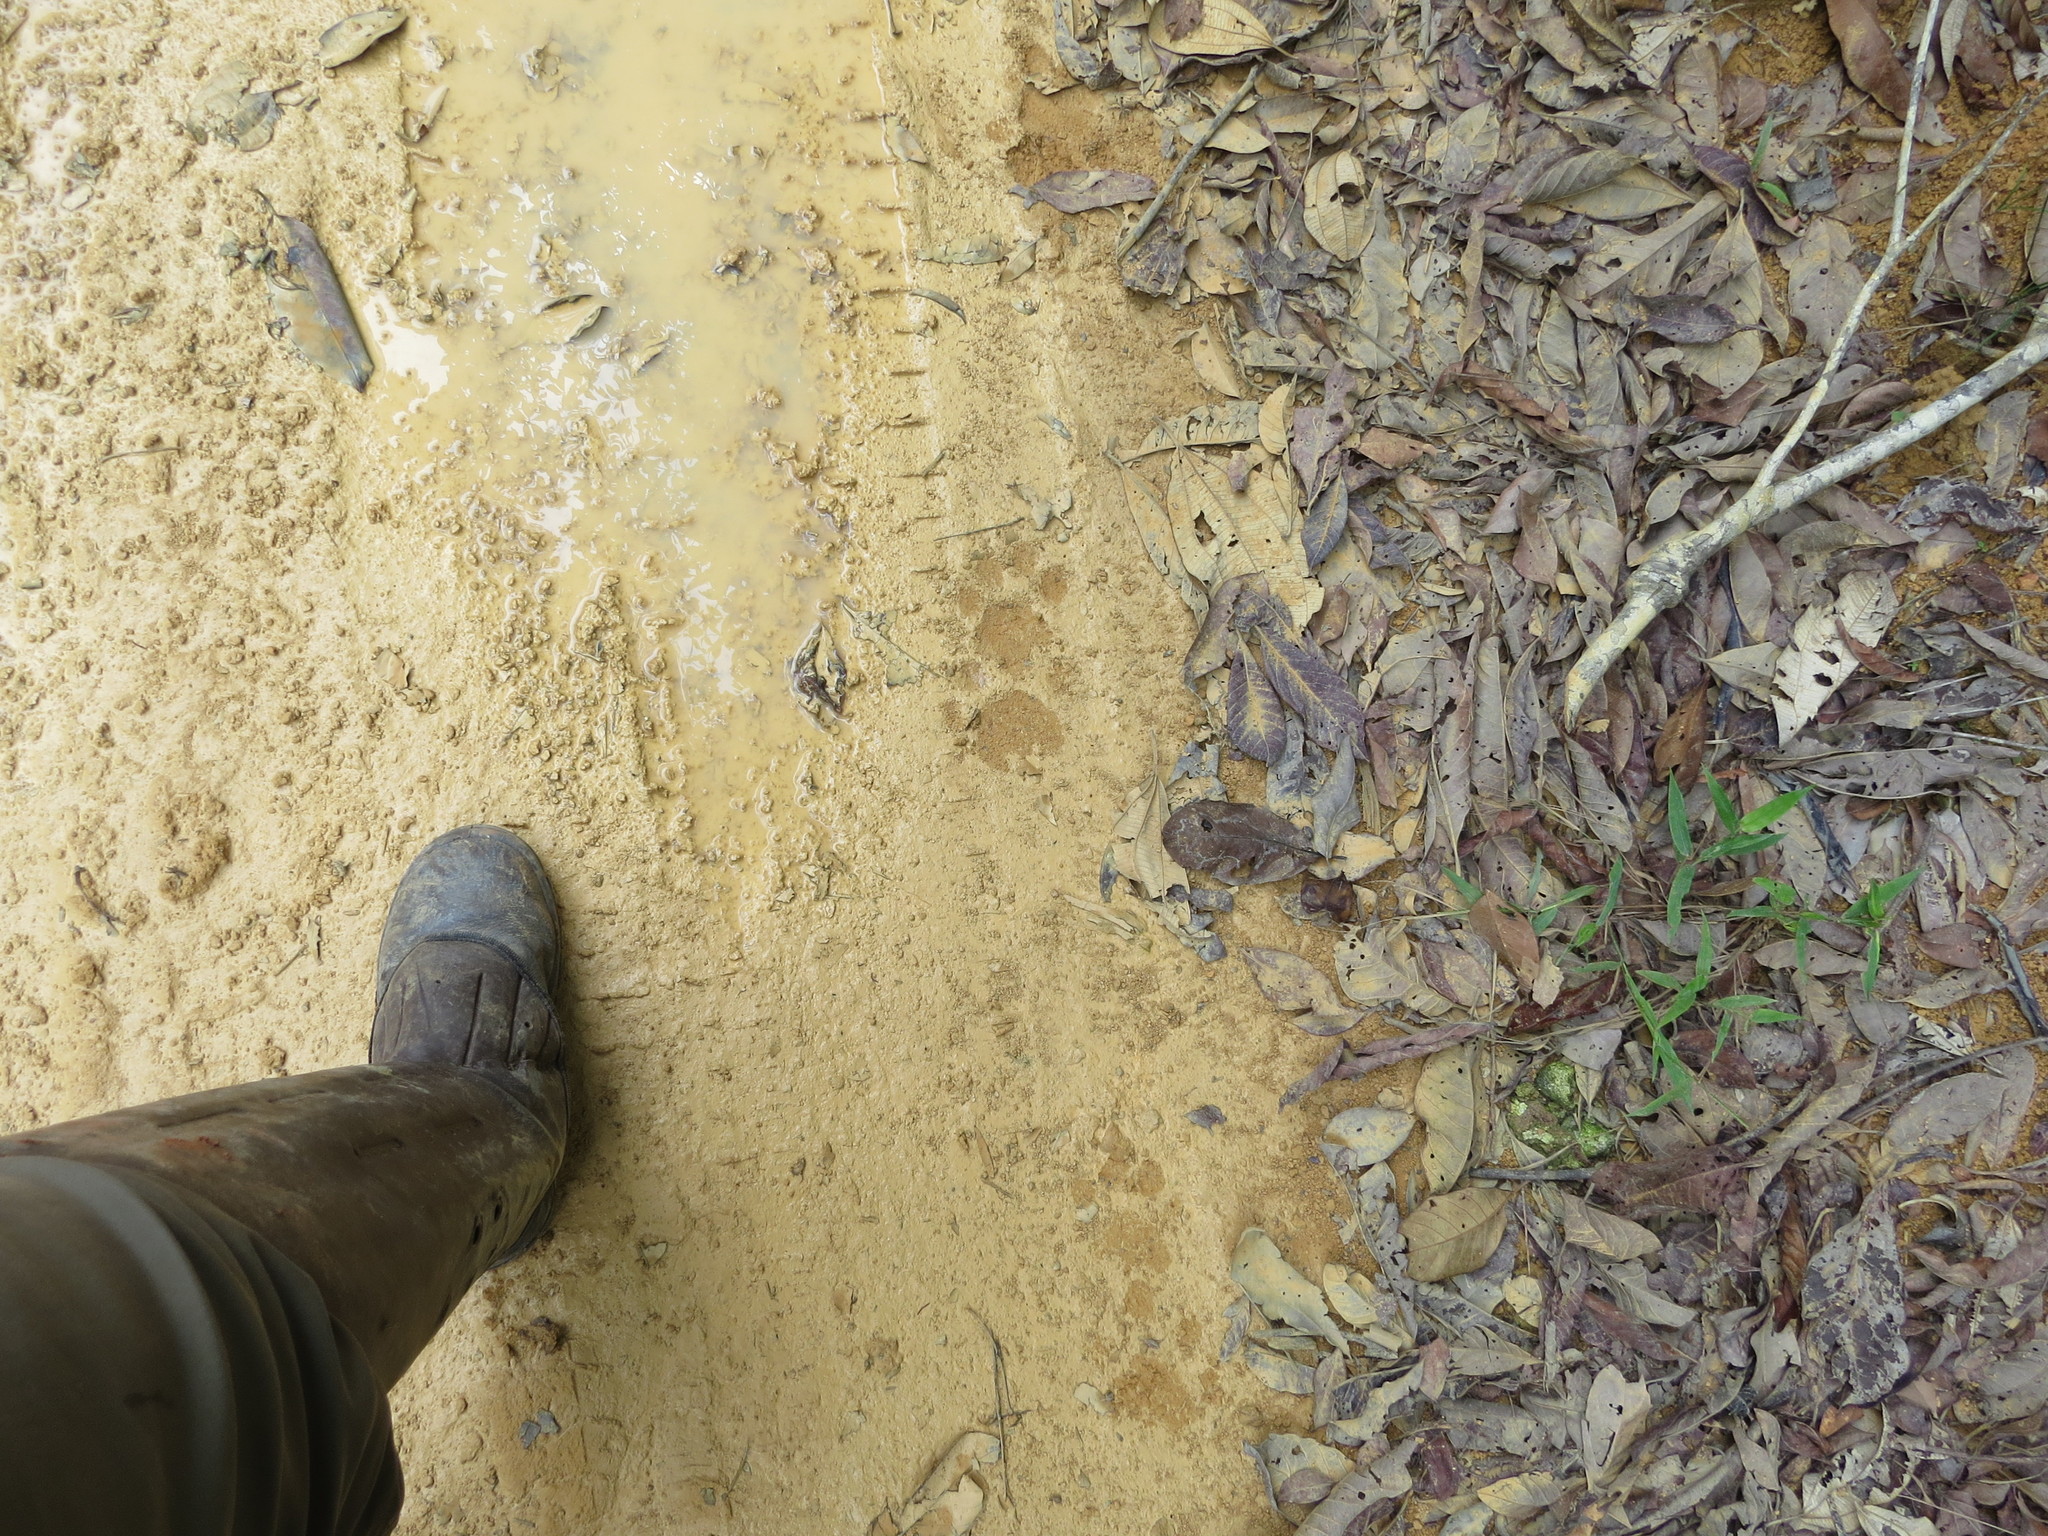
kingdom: Animalia
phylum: Chordata
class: Mammalia
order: Carnivora
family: Felidae
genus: Panthera
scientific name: Panthera onca
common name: Jaguar
